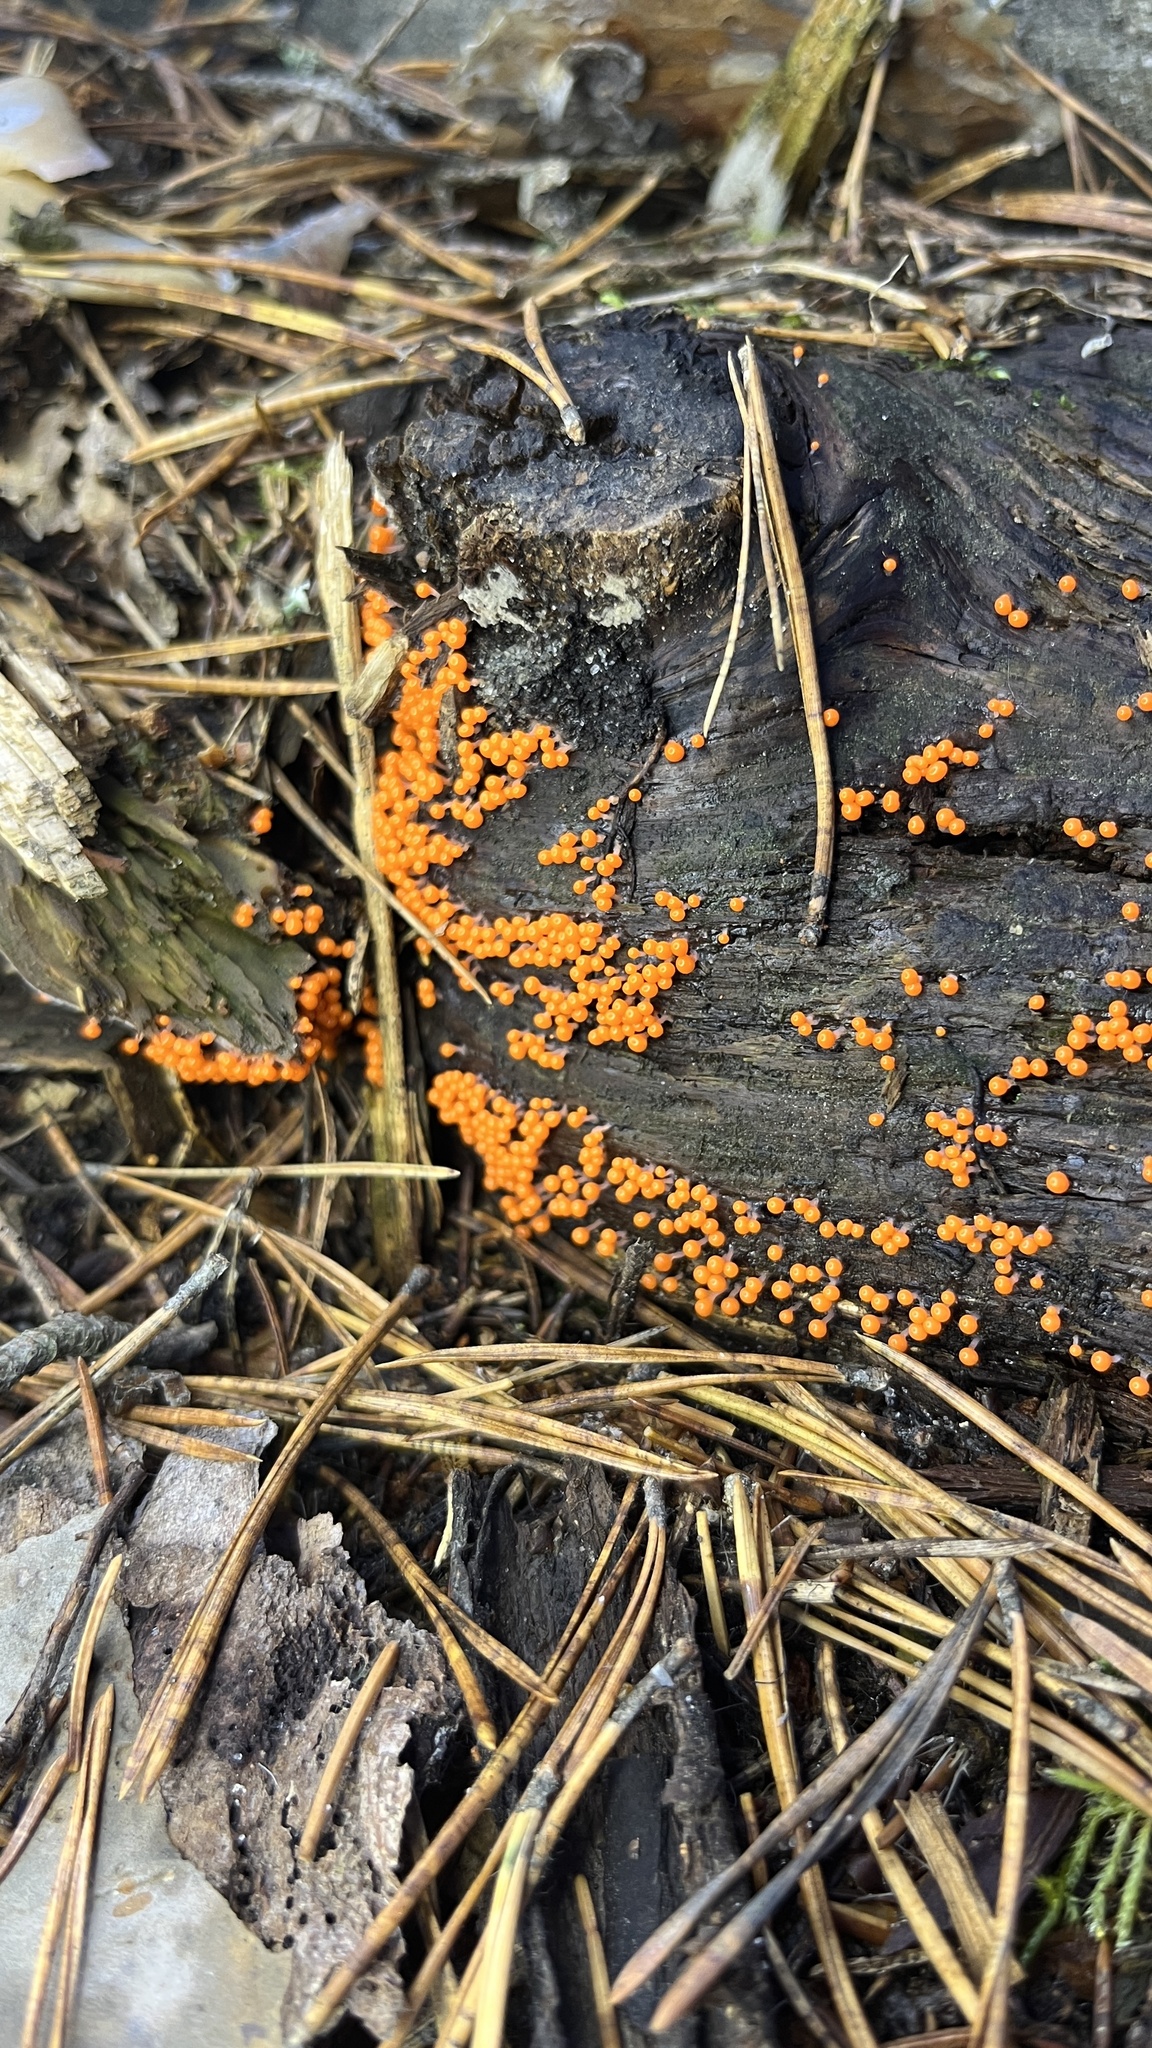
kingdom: Protozoa
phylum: Mycetozoa
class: Myxomycetes
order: Trichiales
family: Arcyriaceae
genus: Hemitrichia
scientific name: Hemitrichia decipiens
